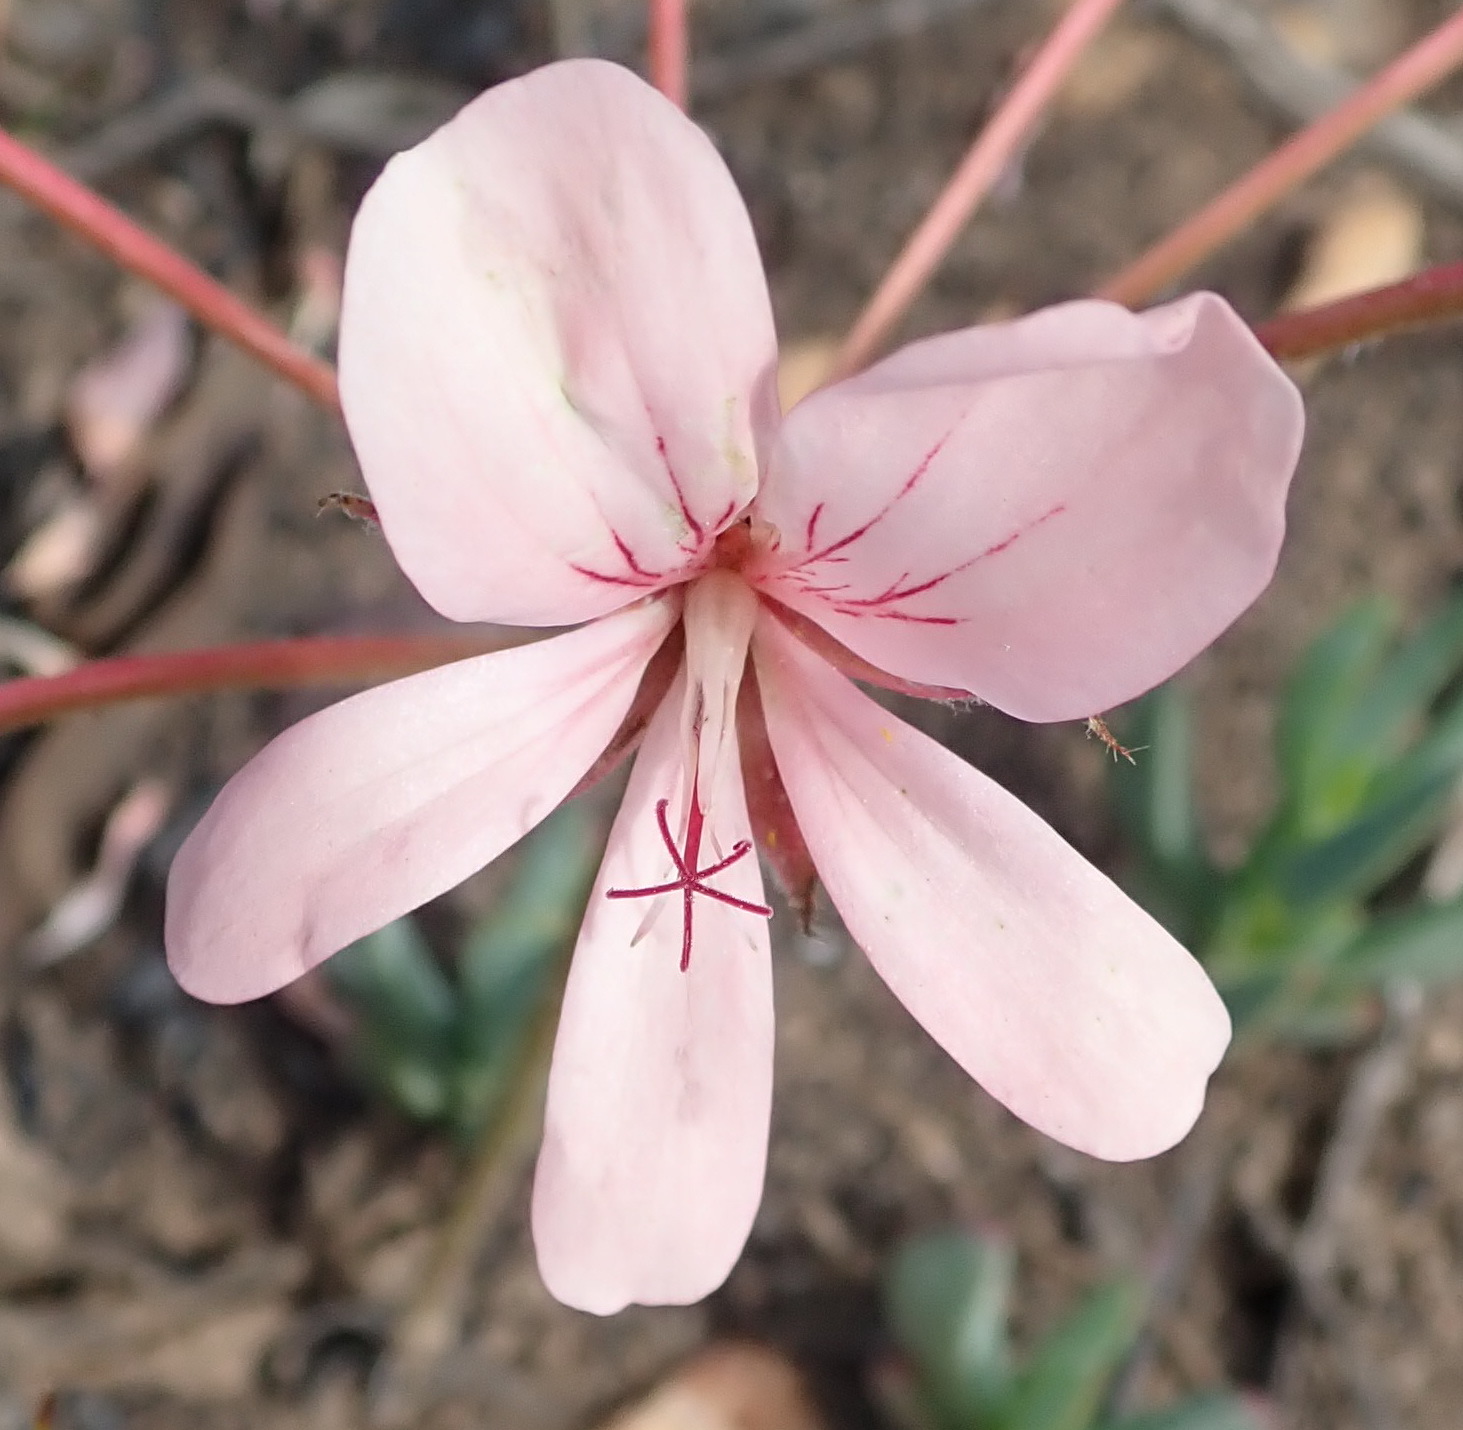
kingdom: Plantae
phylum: Tracheophyta
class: Magnoliopsida
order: Geraniales
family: Geraniaceae
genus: Pelargonium
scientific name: Pelargonium carneum
